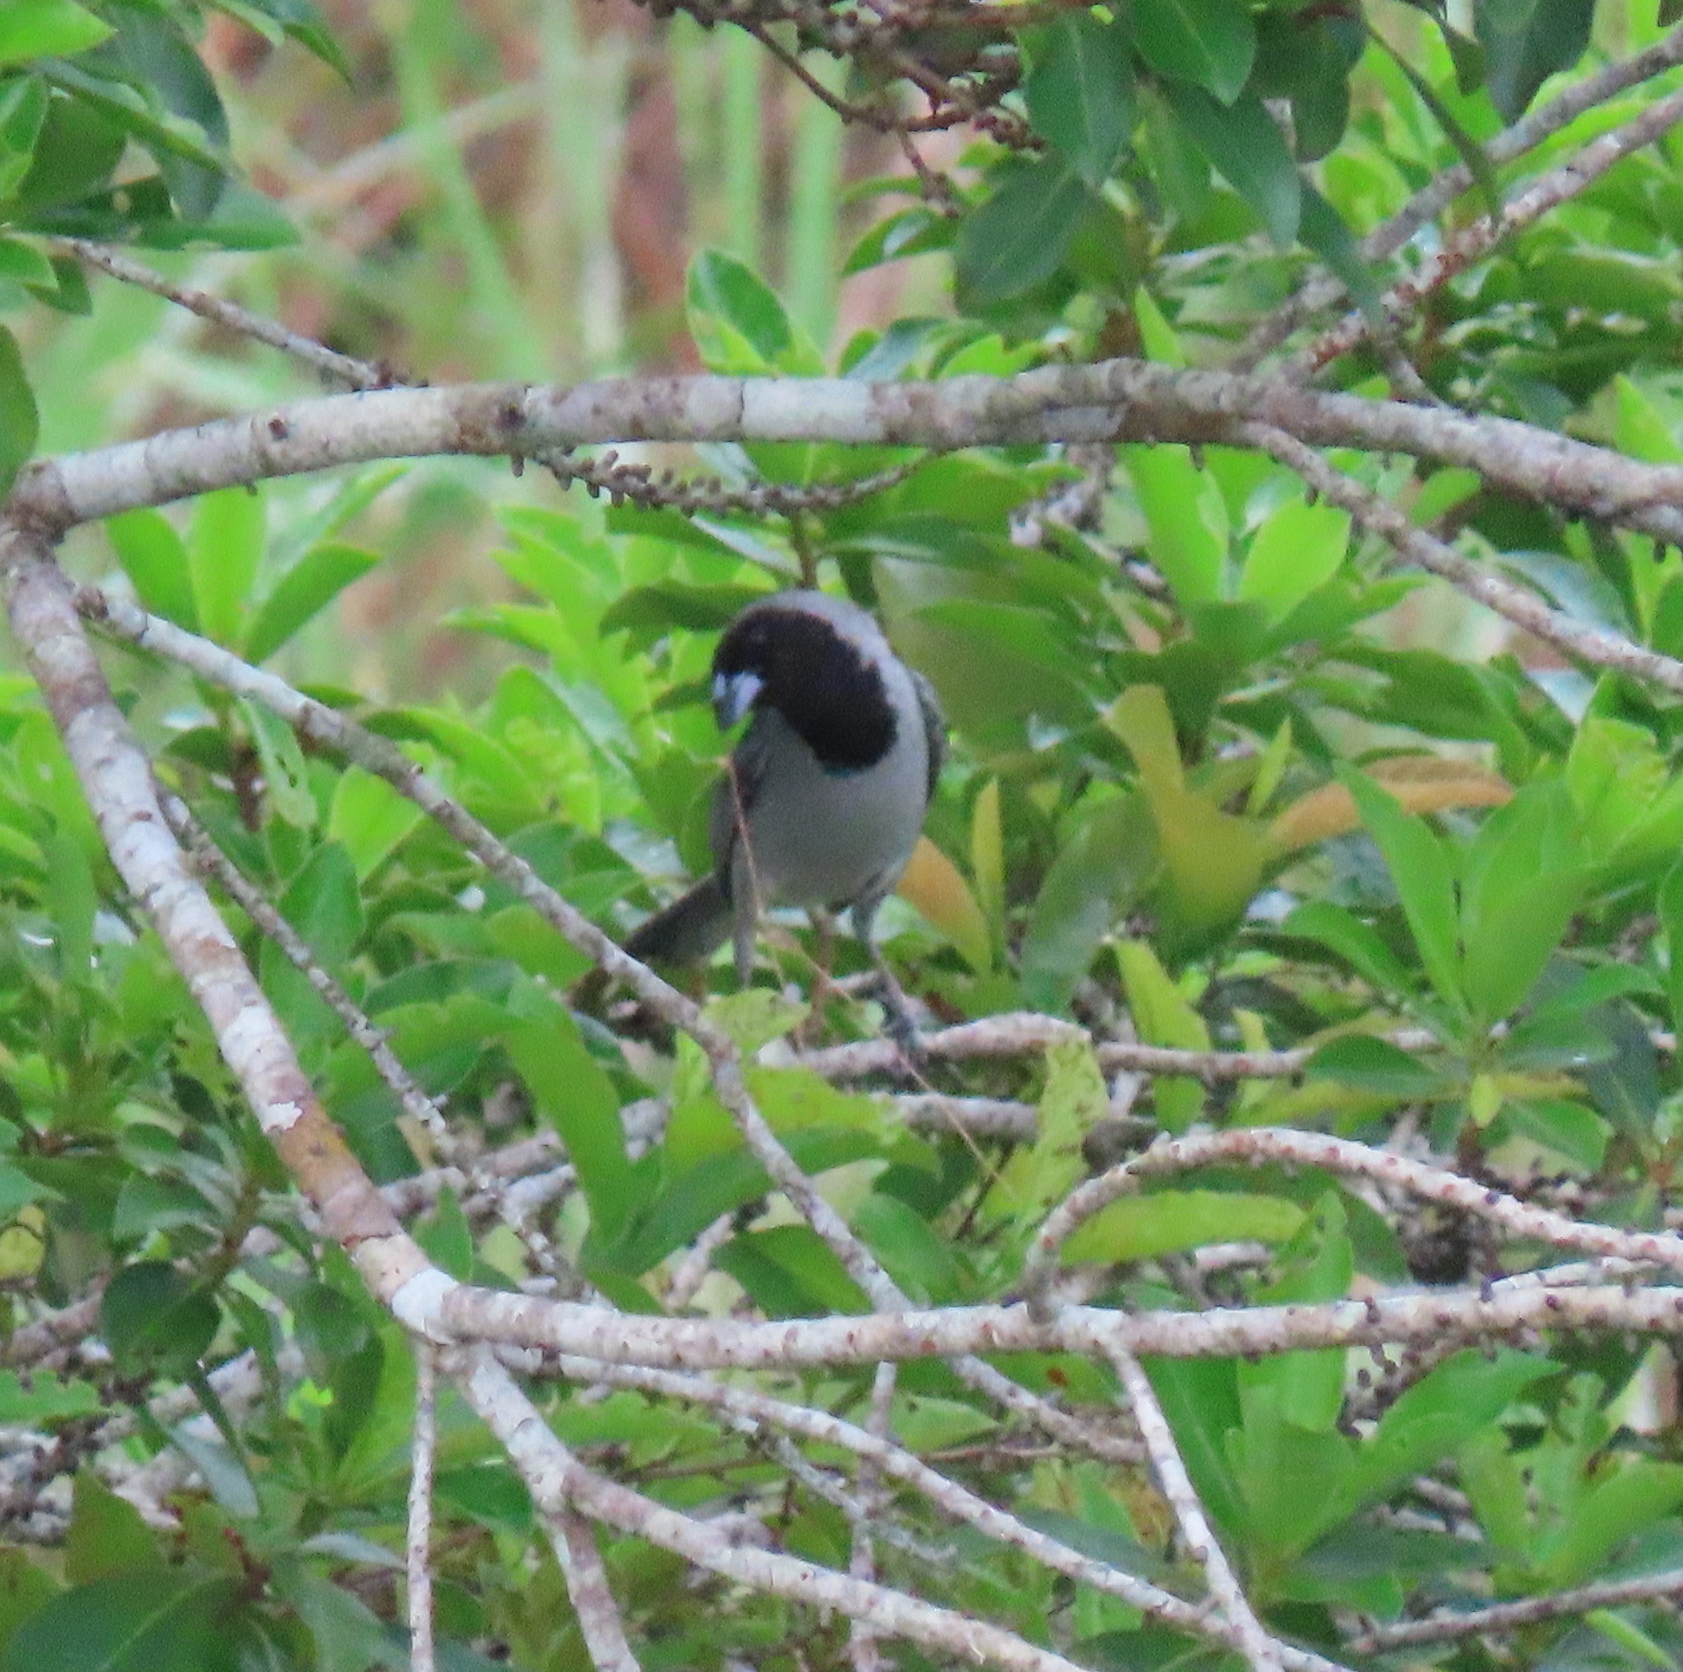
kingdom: Animalia
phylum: Chordata
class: Aves
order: Passeriformes
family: Thraupidae
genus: Schistochlamys
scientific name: Schistochlamys melanopis
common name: Black-faced tanager
